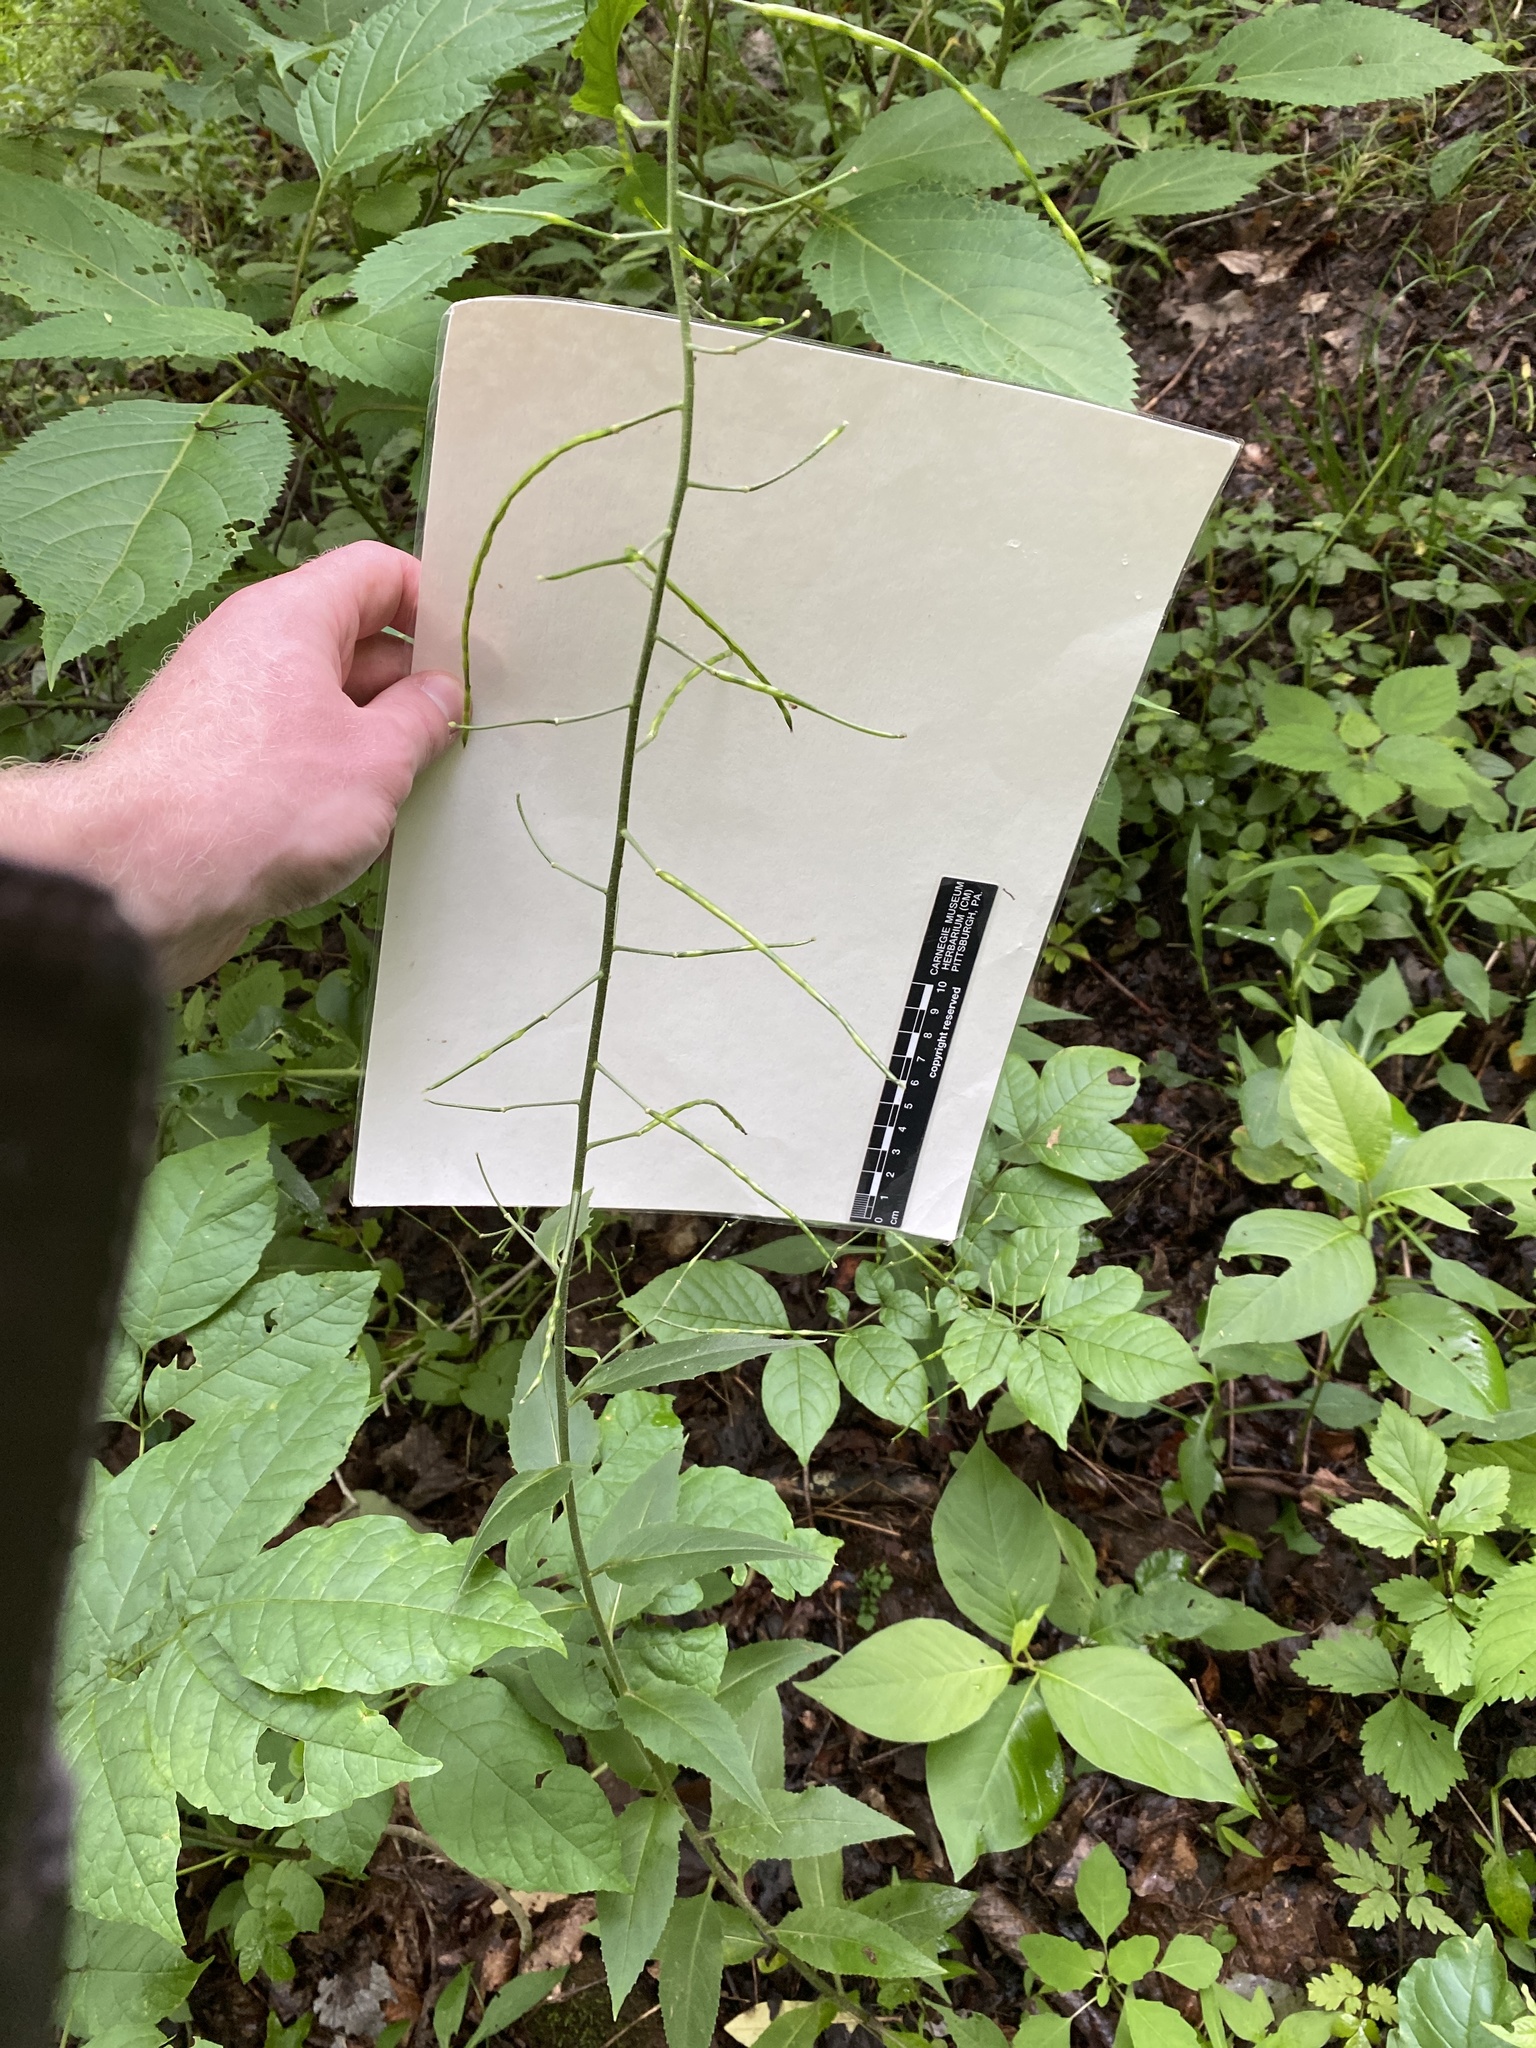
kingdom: Plantae
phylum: Tracheophyta
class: Magnoliopsida
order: Brassicales
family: Brassicaceae
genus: Hesperis
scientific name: Hesperis matronalis
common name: Dame's-violet
